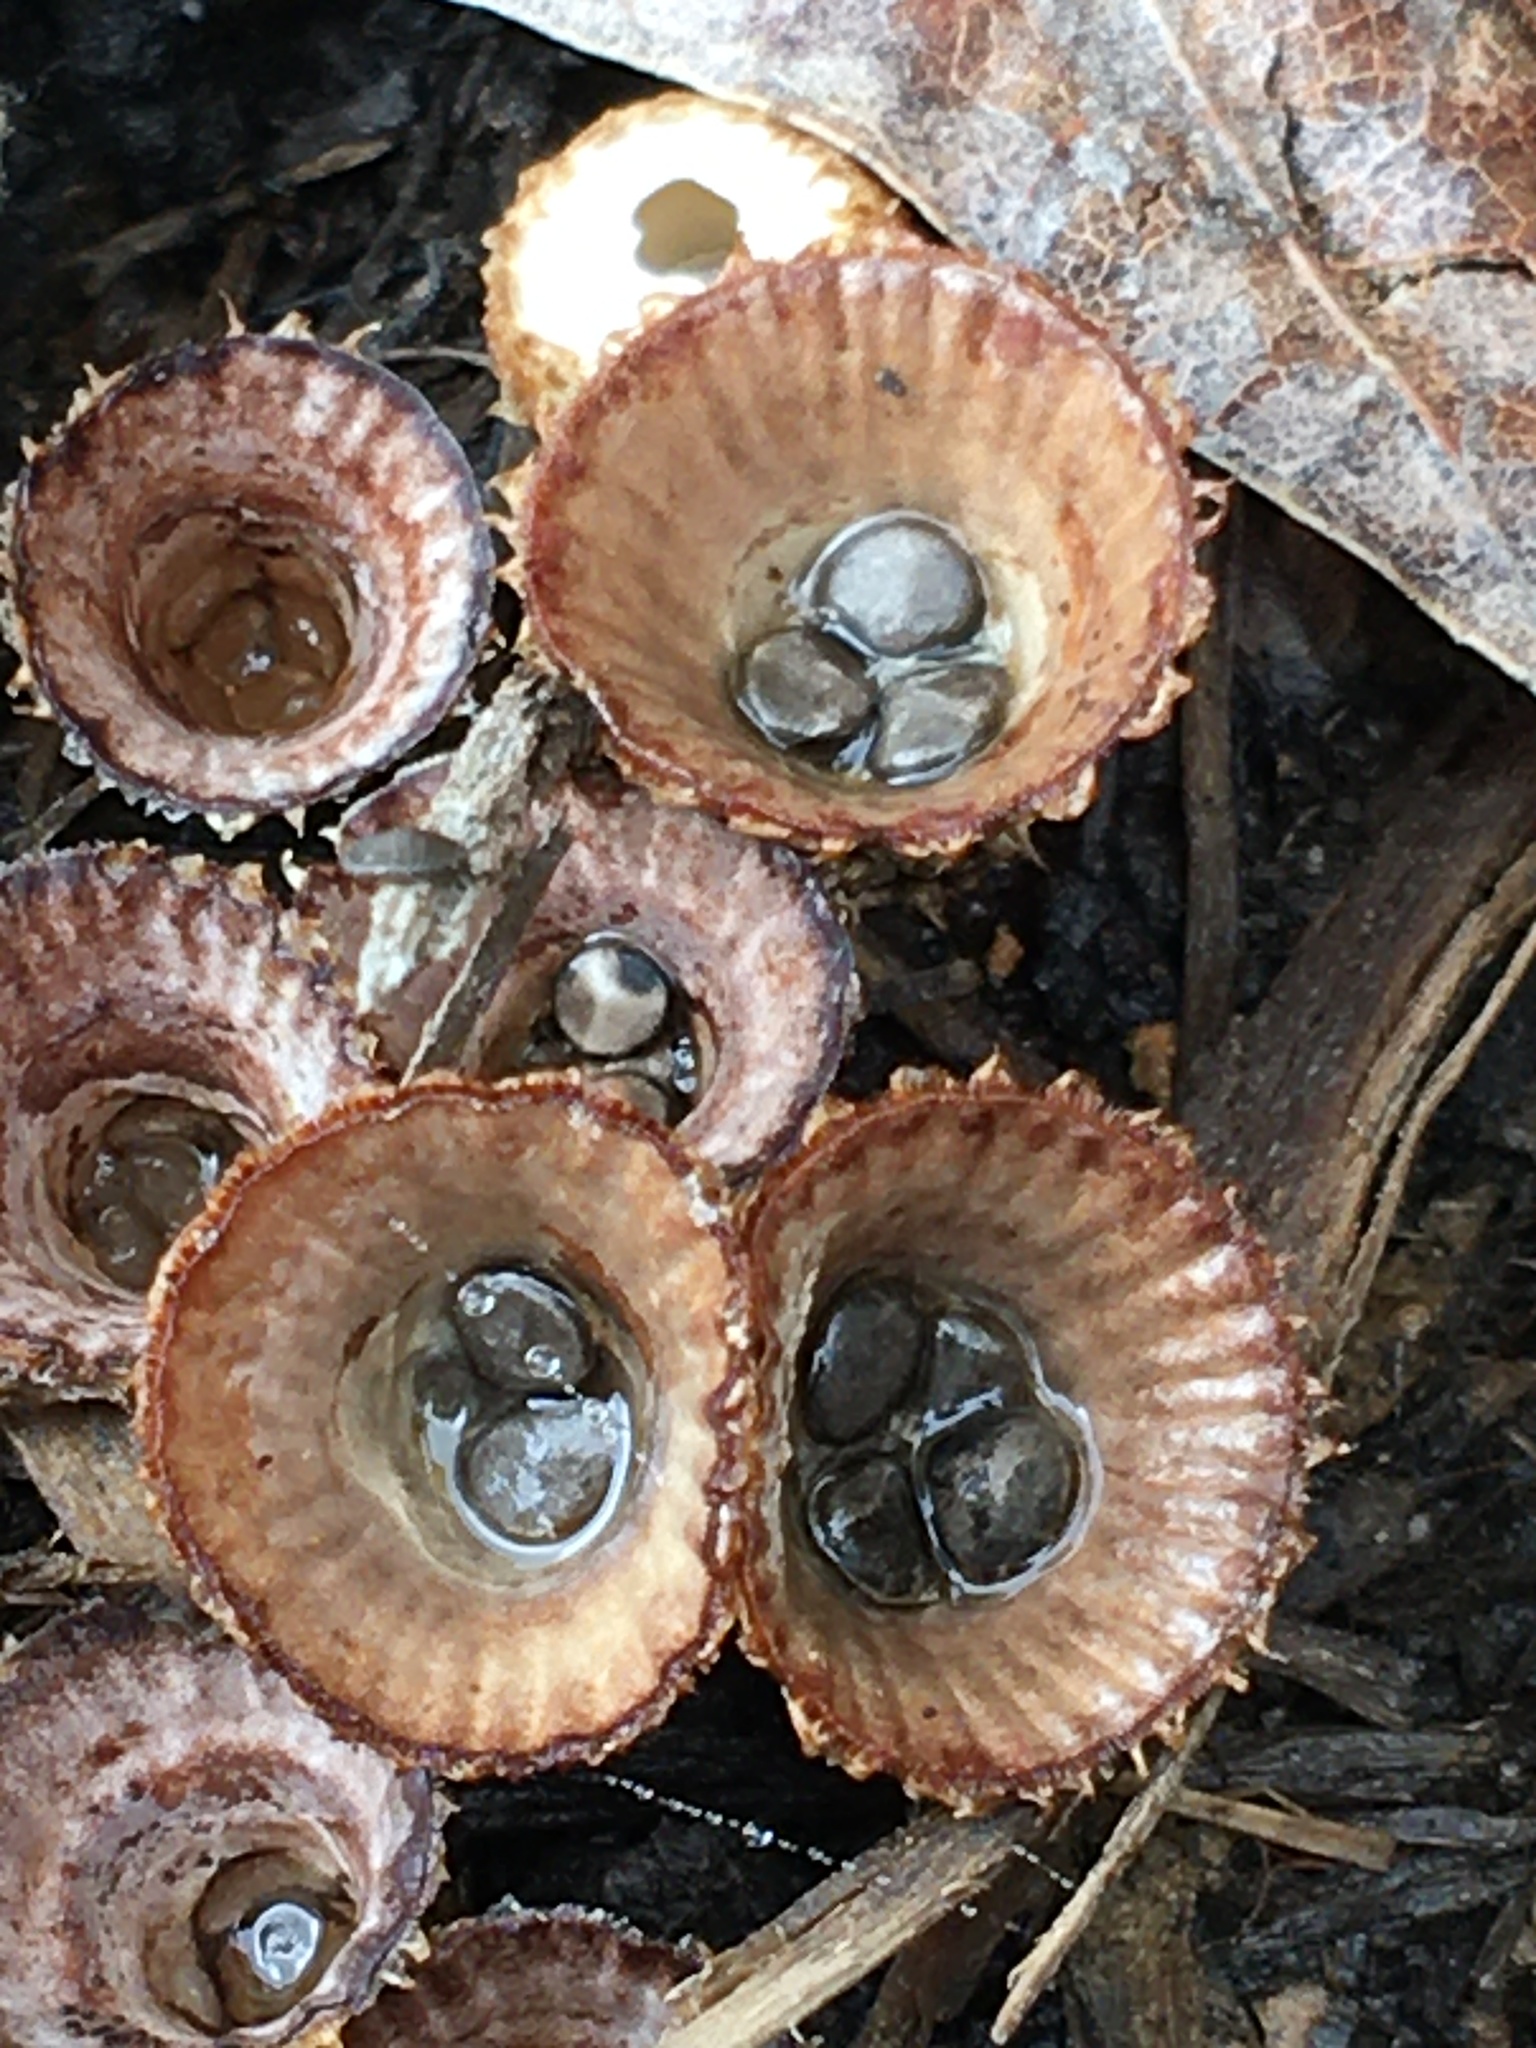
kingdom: Fungi
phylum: Basidiomycota
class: Agaricomycetes
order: Agaricales
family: Agaricaceae
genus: Cyathus
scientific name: Cyathus striatus
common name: Fluted bird's nest
